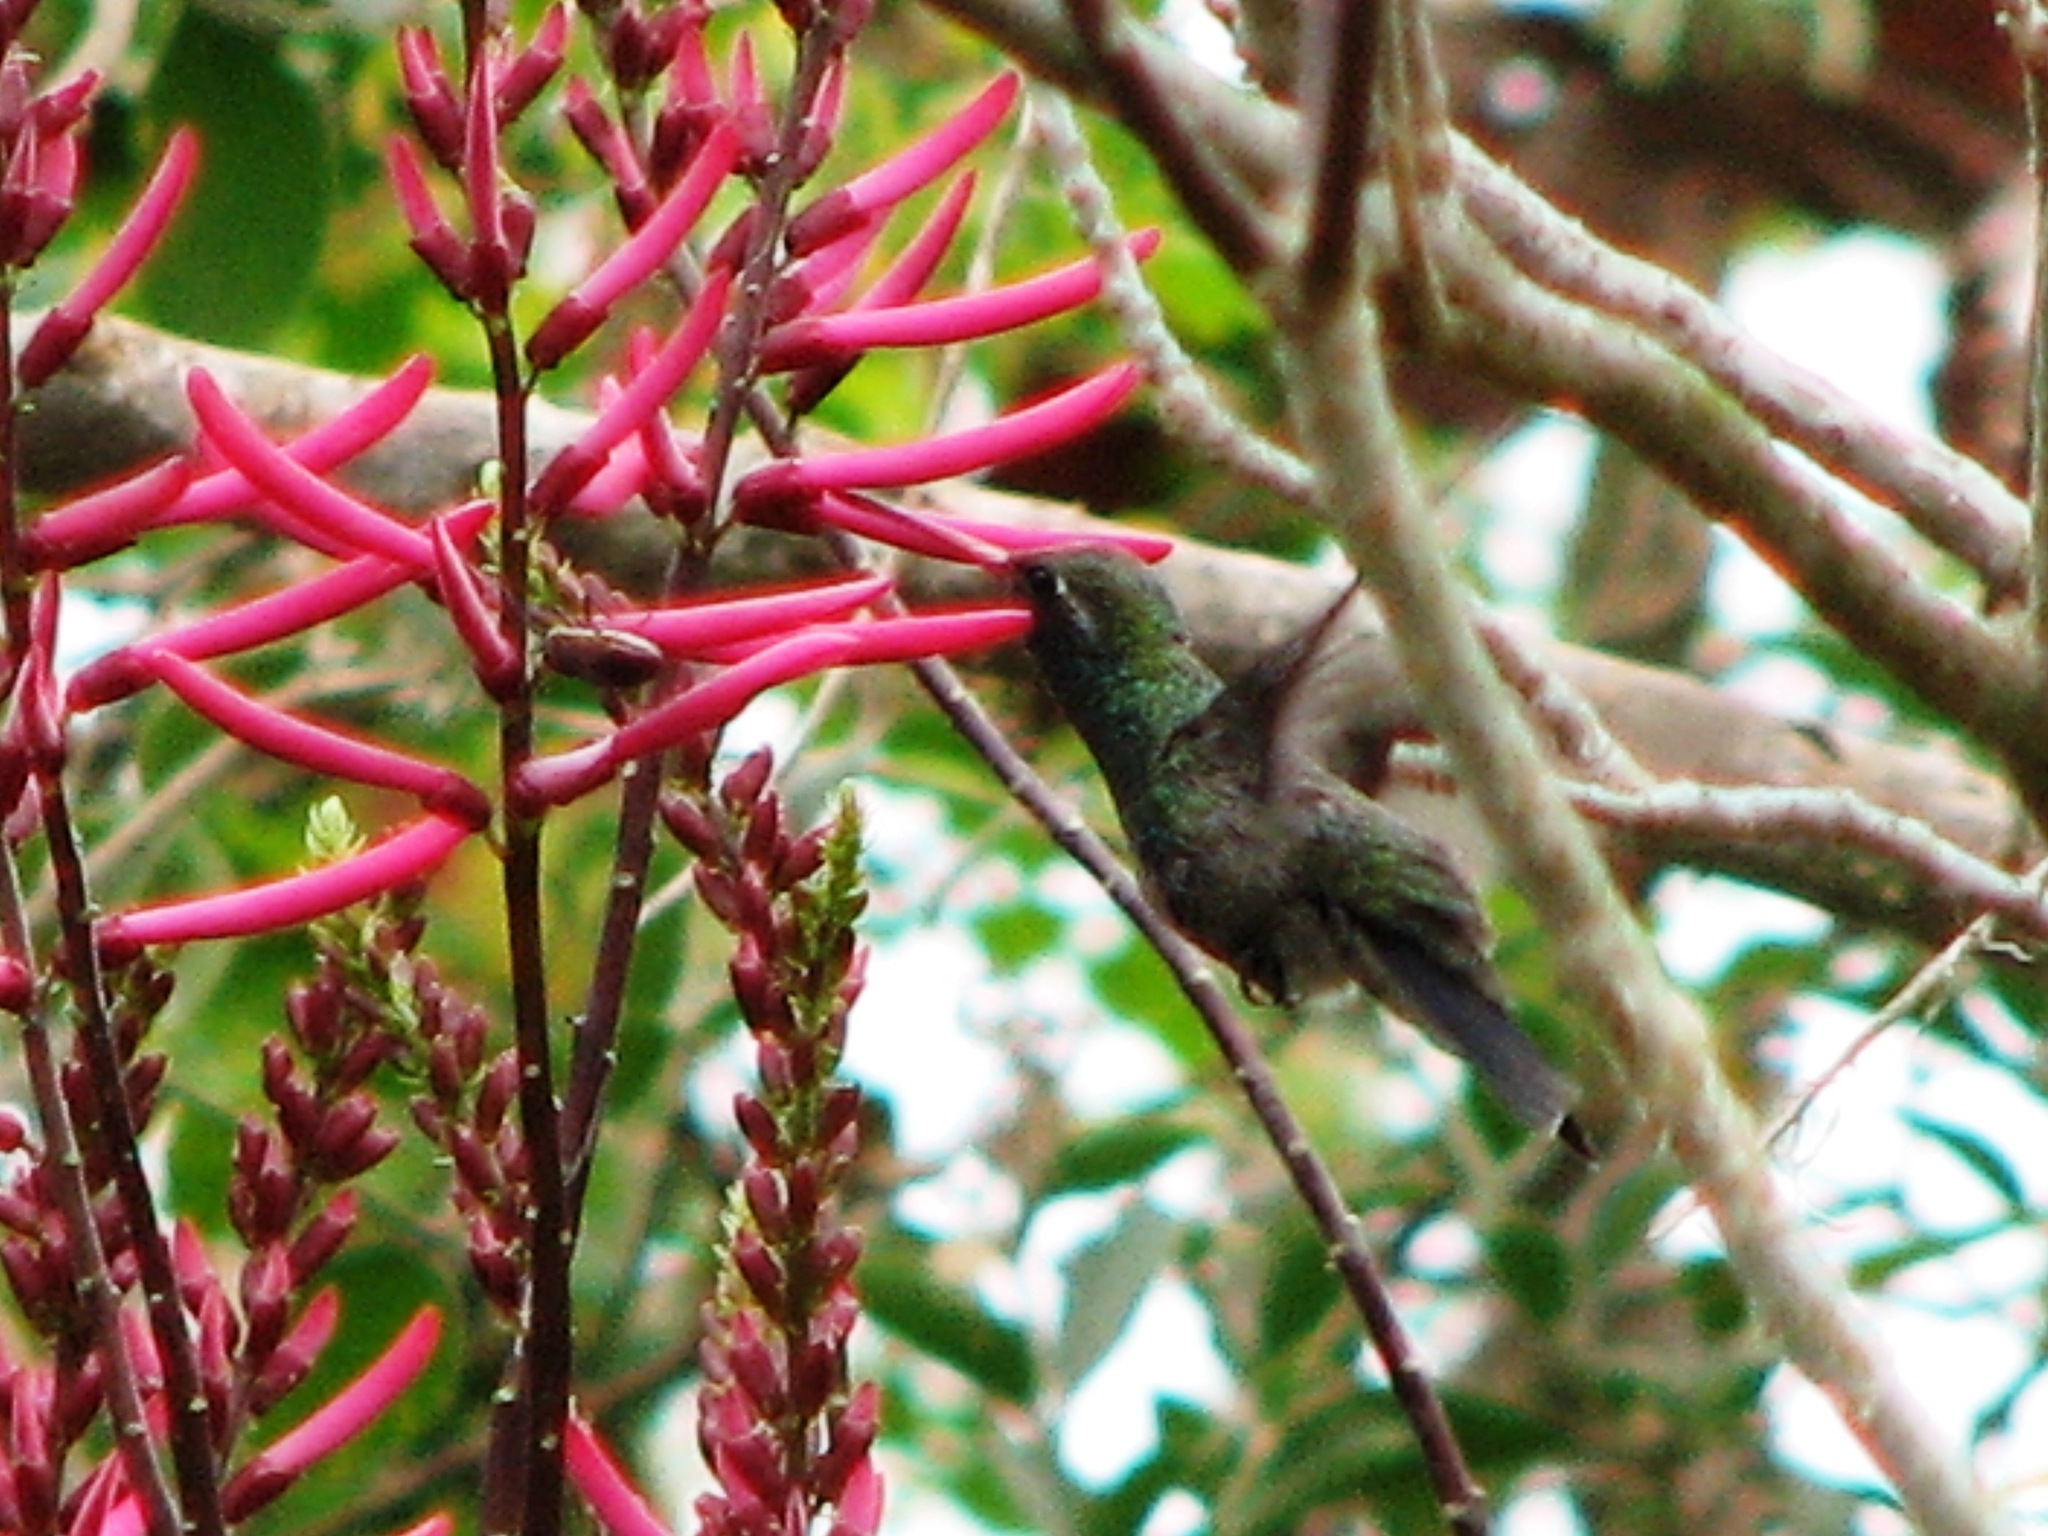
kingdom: Animalia
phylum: Chordata
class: Aves
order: Apodiformes
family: Trochilidae
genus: Cynanthus
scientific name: Cynanthus latirostris
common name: Broad-billed hummingbird
